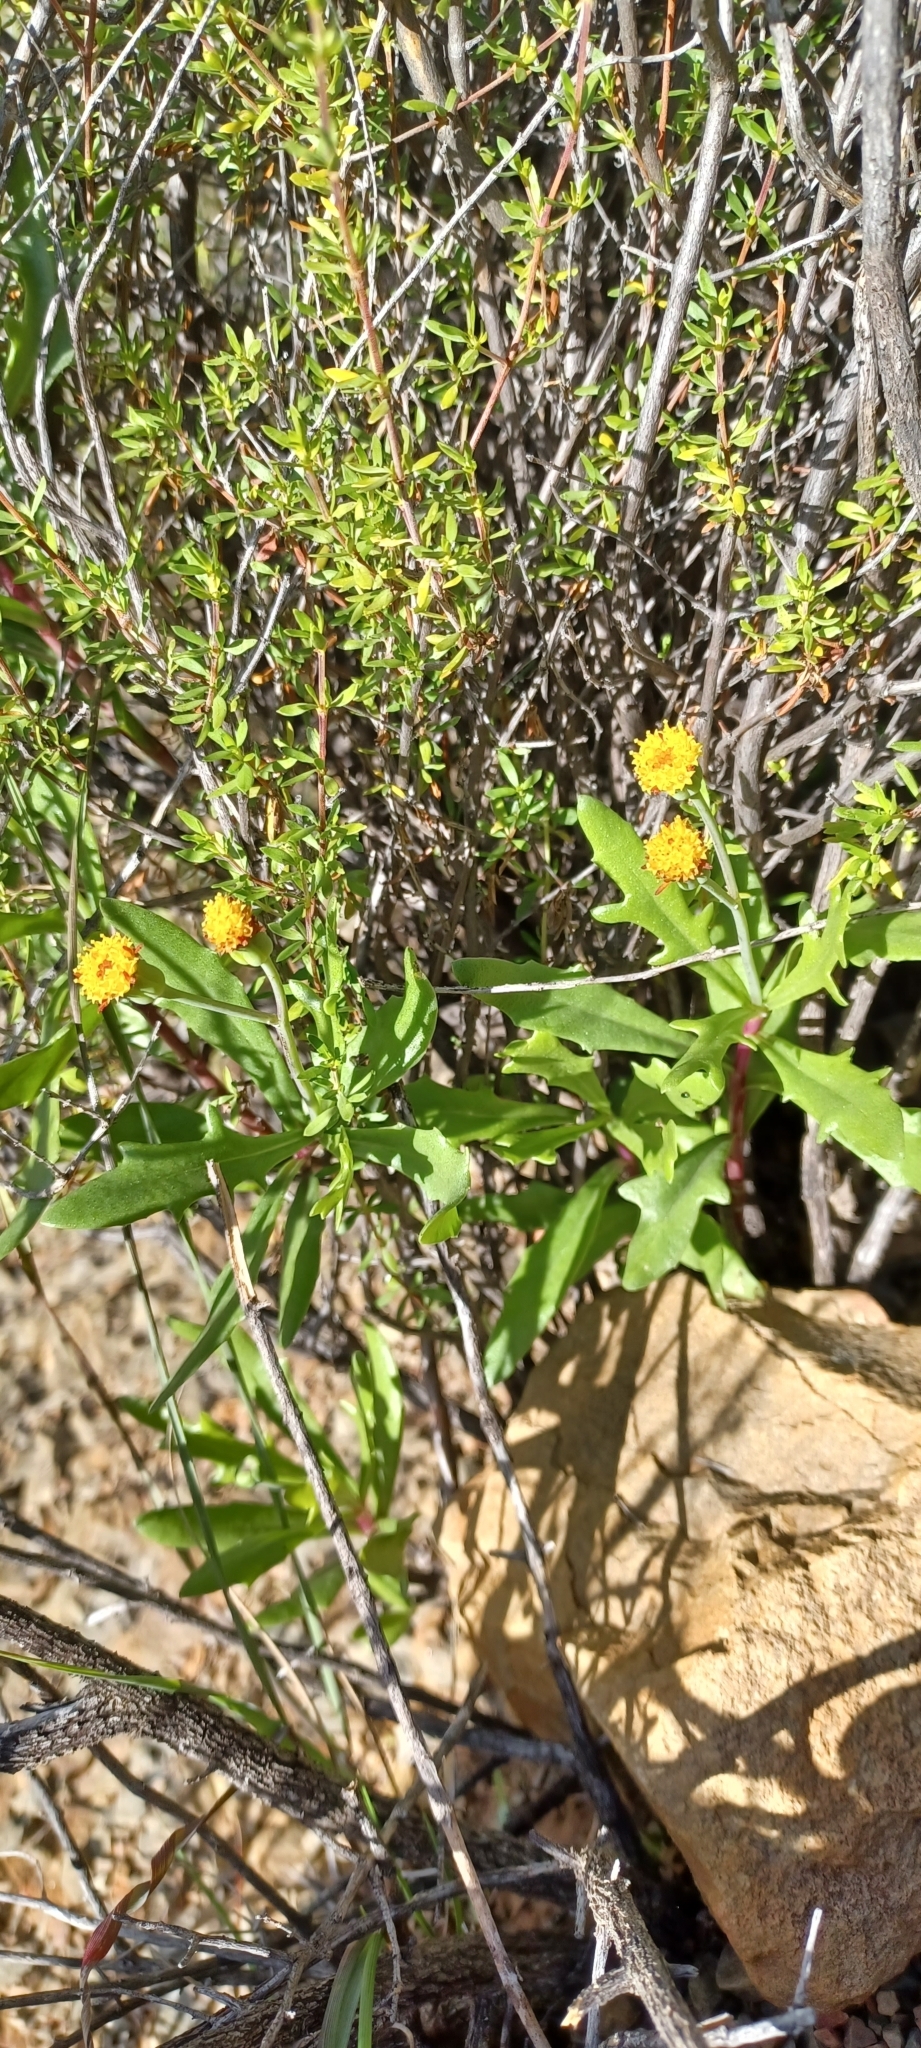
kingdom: Plantae
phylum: Tracheophyta
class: Magnoliopsida
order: Asterales
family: Asteraceae
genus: Othonna
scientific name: Othonna retrofracta
